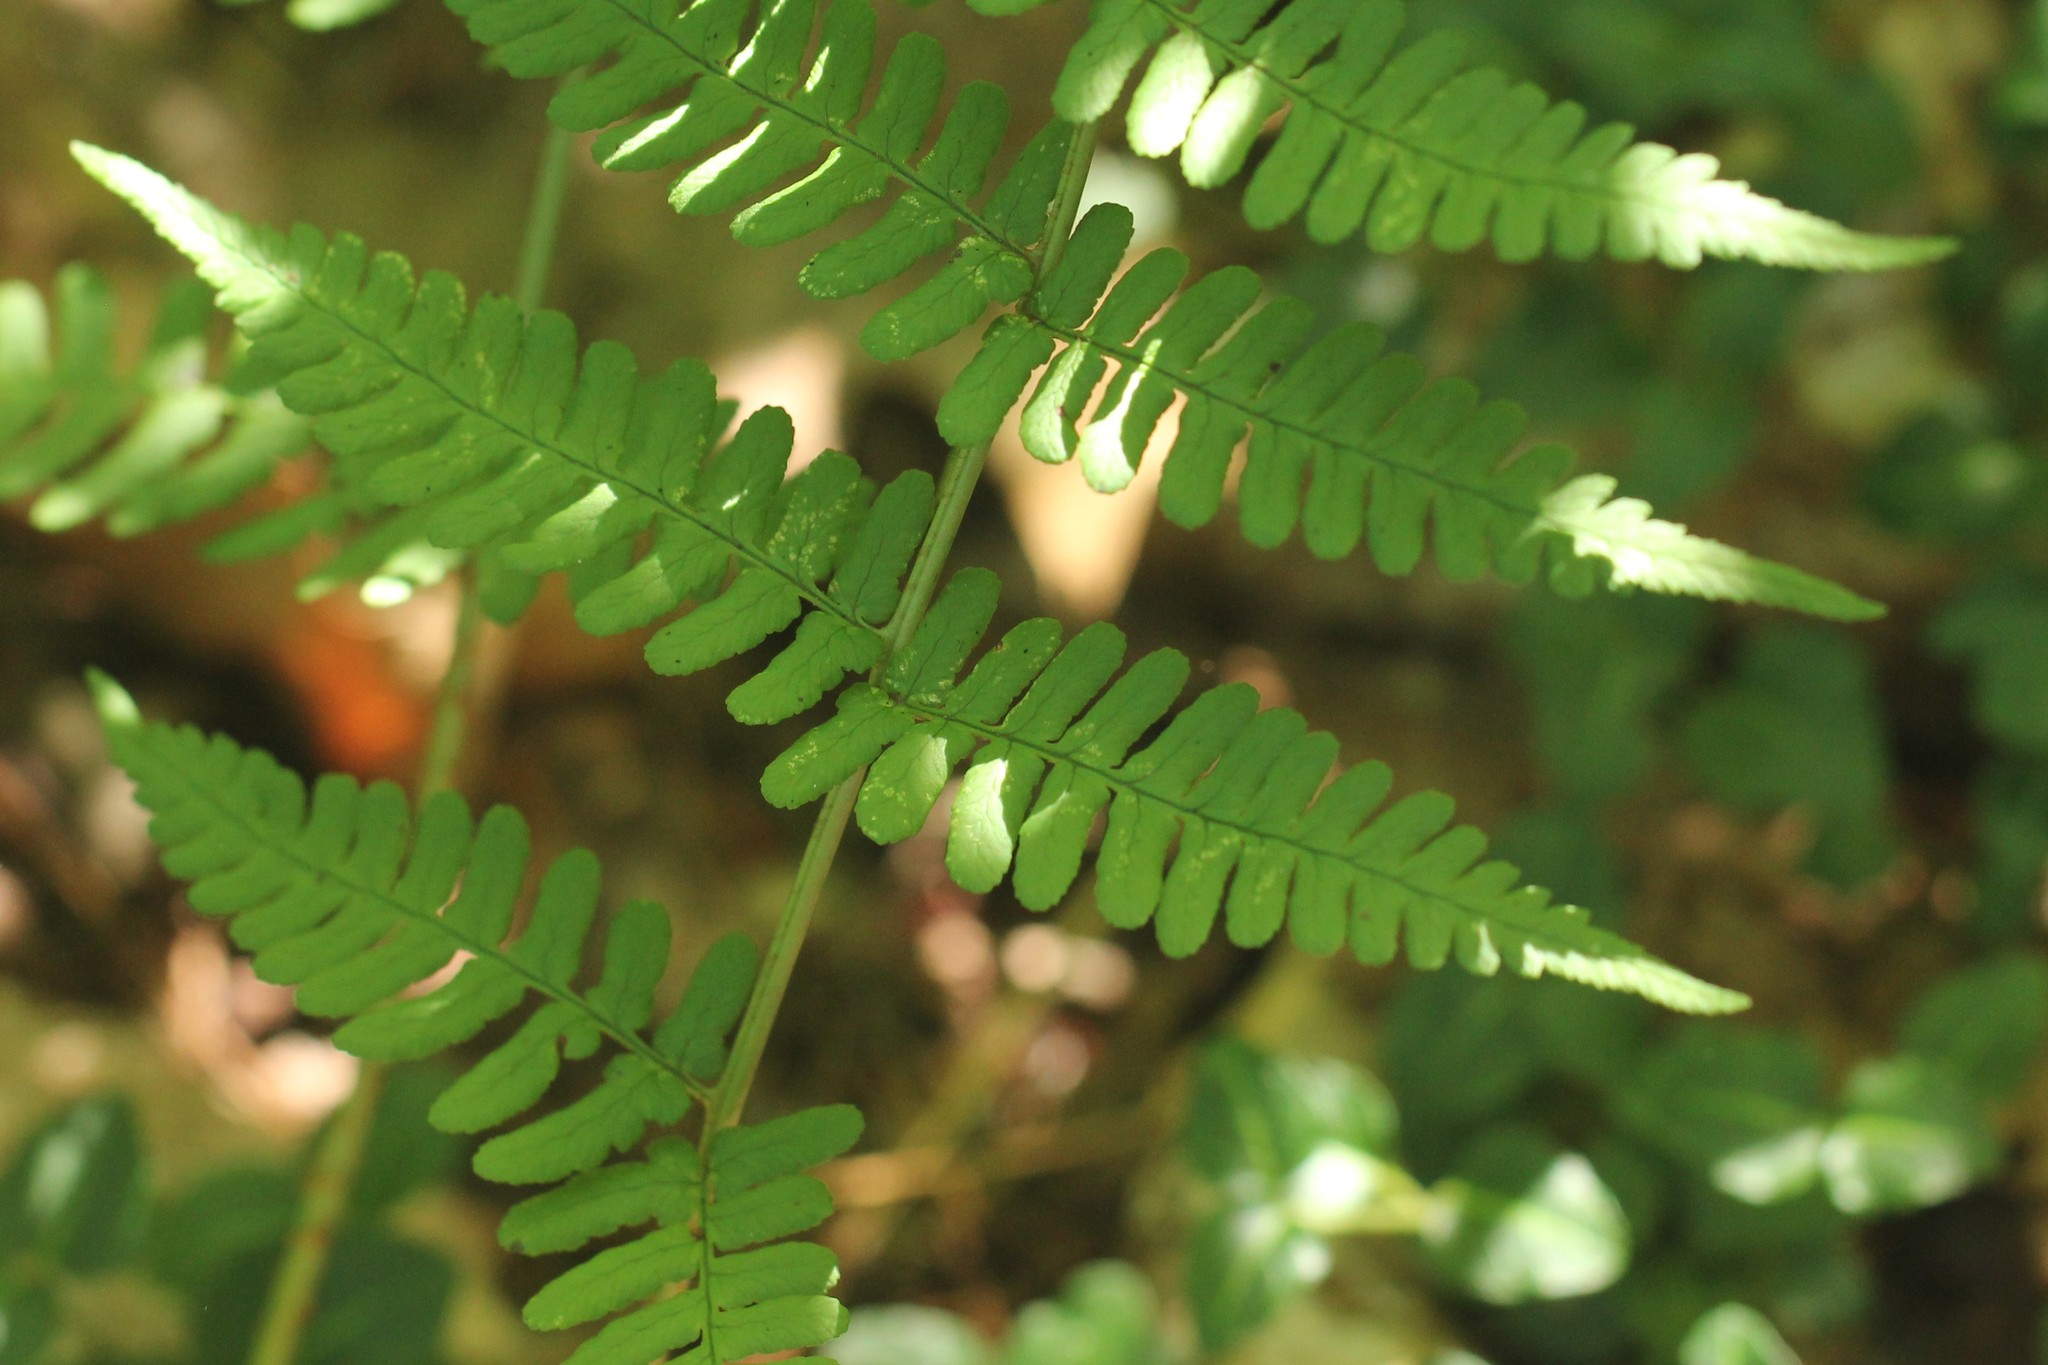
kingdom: Plantae
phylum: Tracheophyta
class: Polypodiopsida
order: Polypodiales
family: Dryopteridaceae
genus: Dryopteris
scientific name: Dryopteris marginalis
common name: Marginal wood fern
